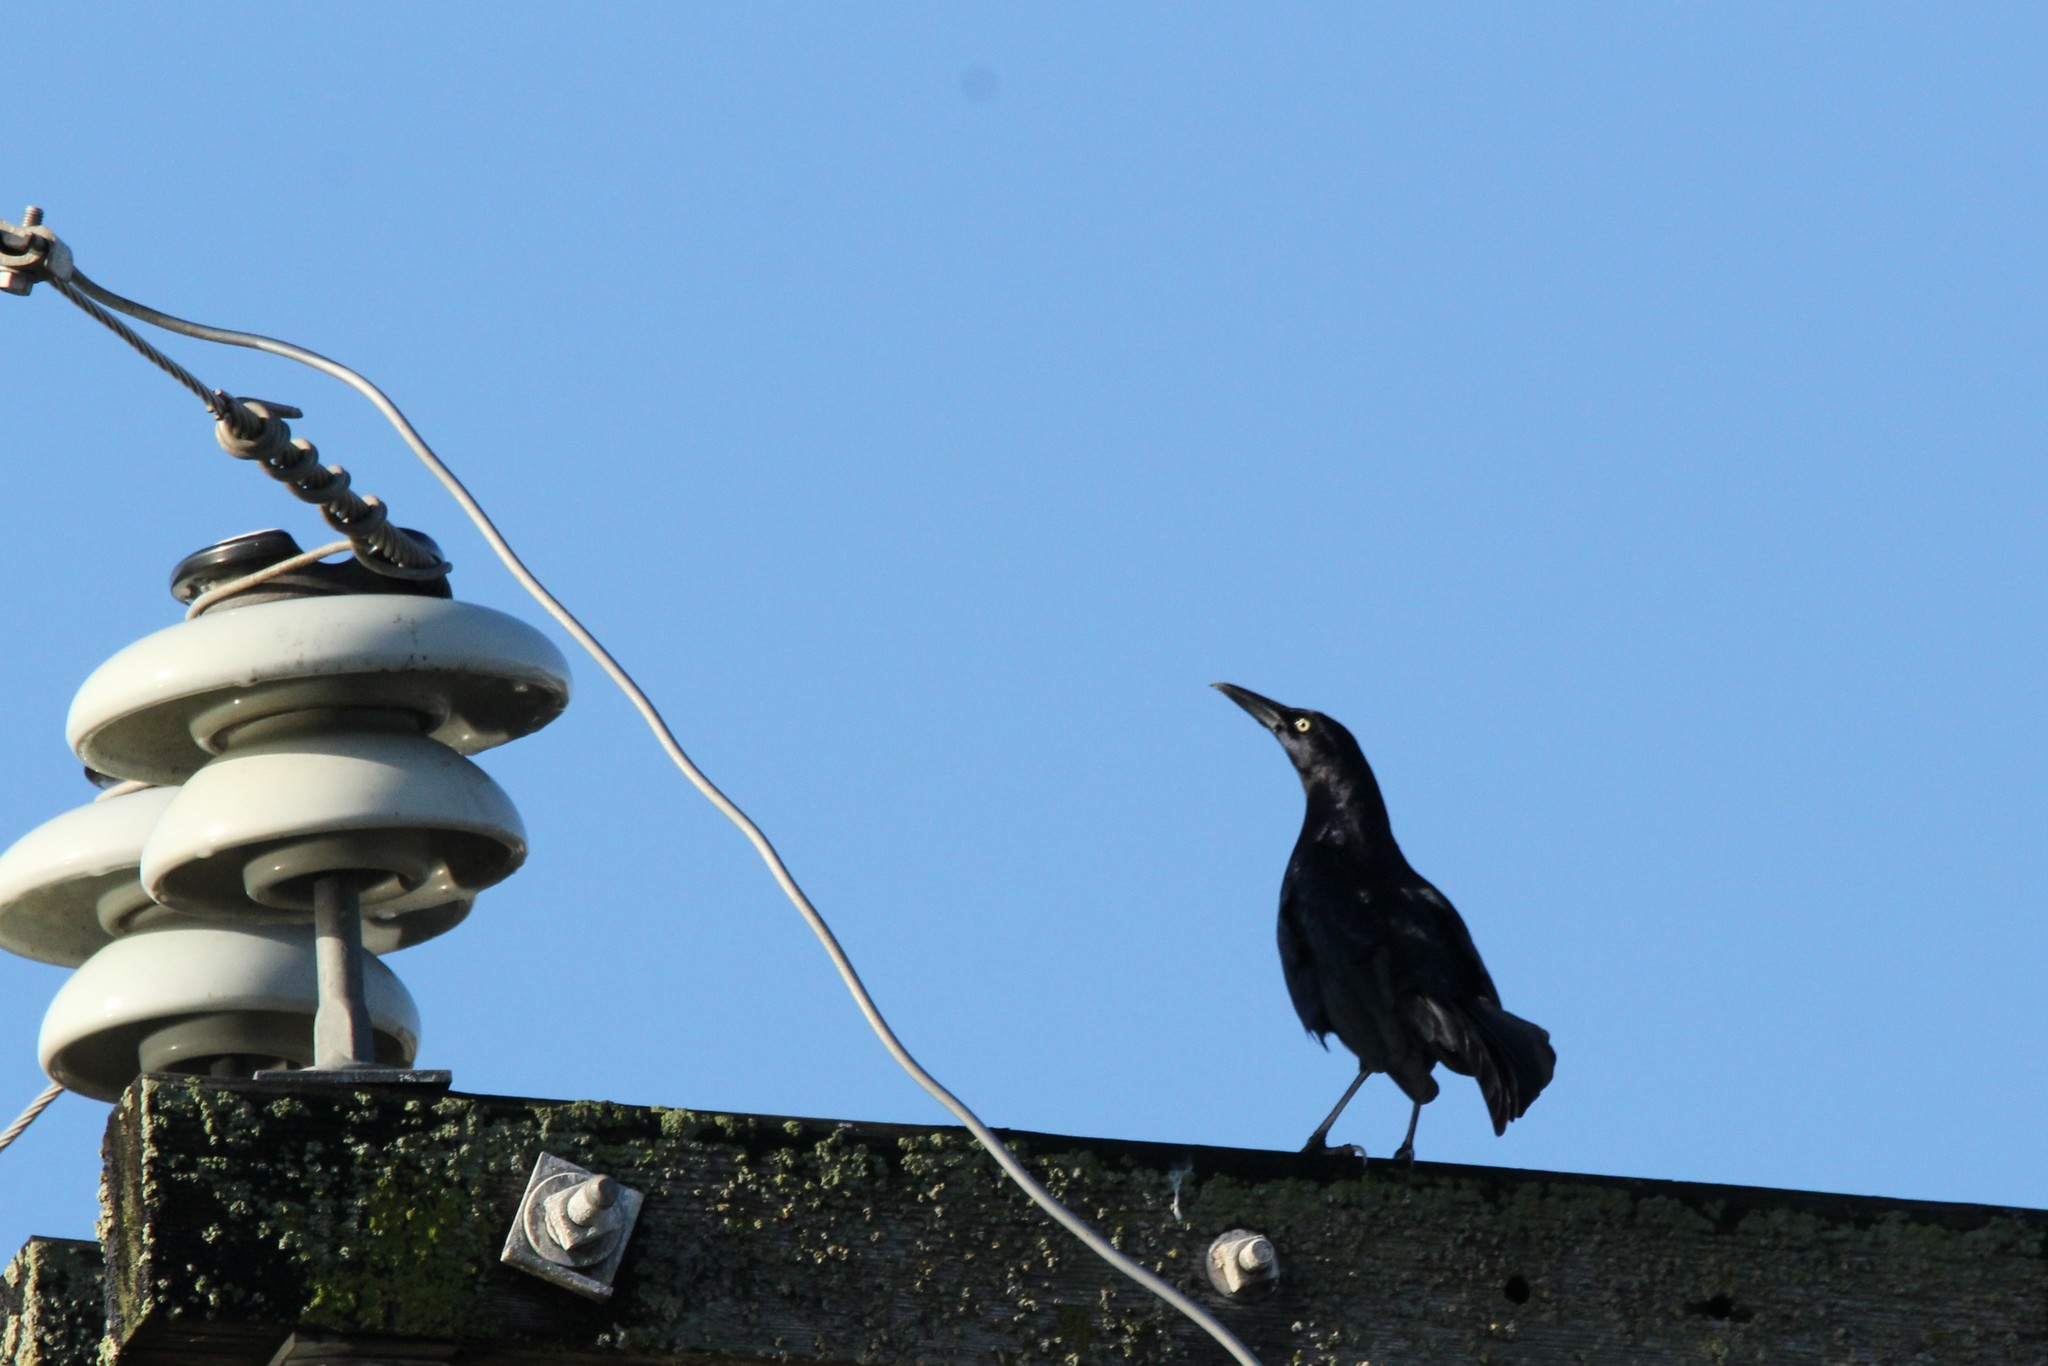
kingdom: Animalia
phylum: Chordata
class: Aves
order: Passeriformes
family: Icteridae
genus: Quiscalus
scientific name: Quiscalus mexicanus
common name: Great-tailed grackle
